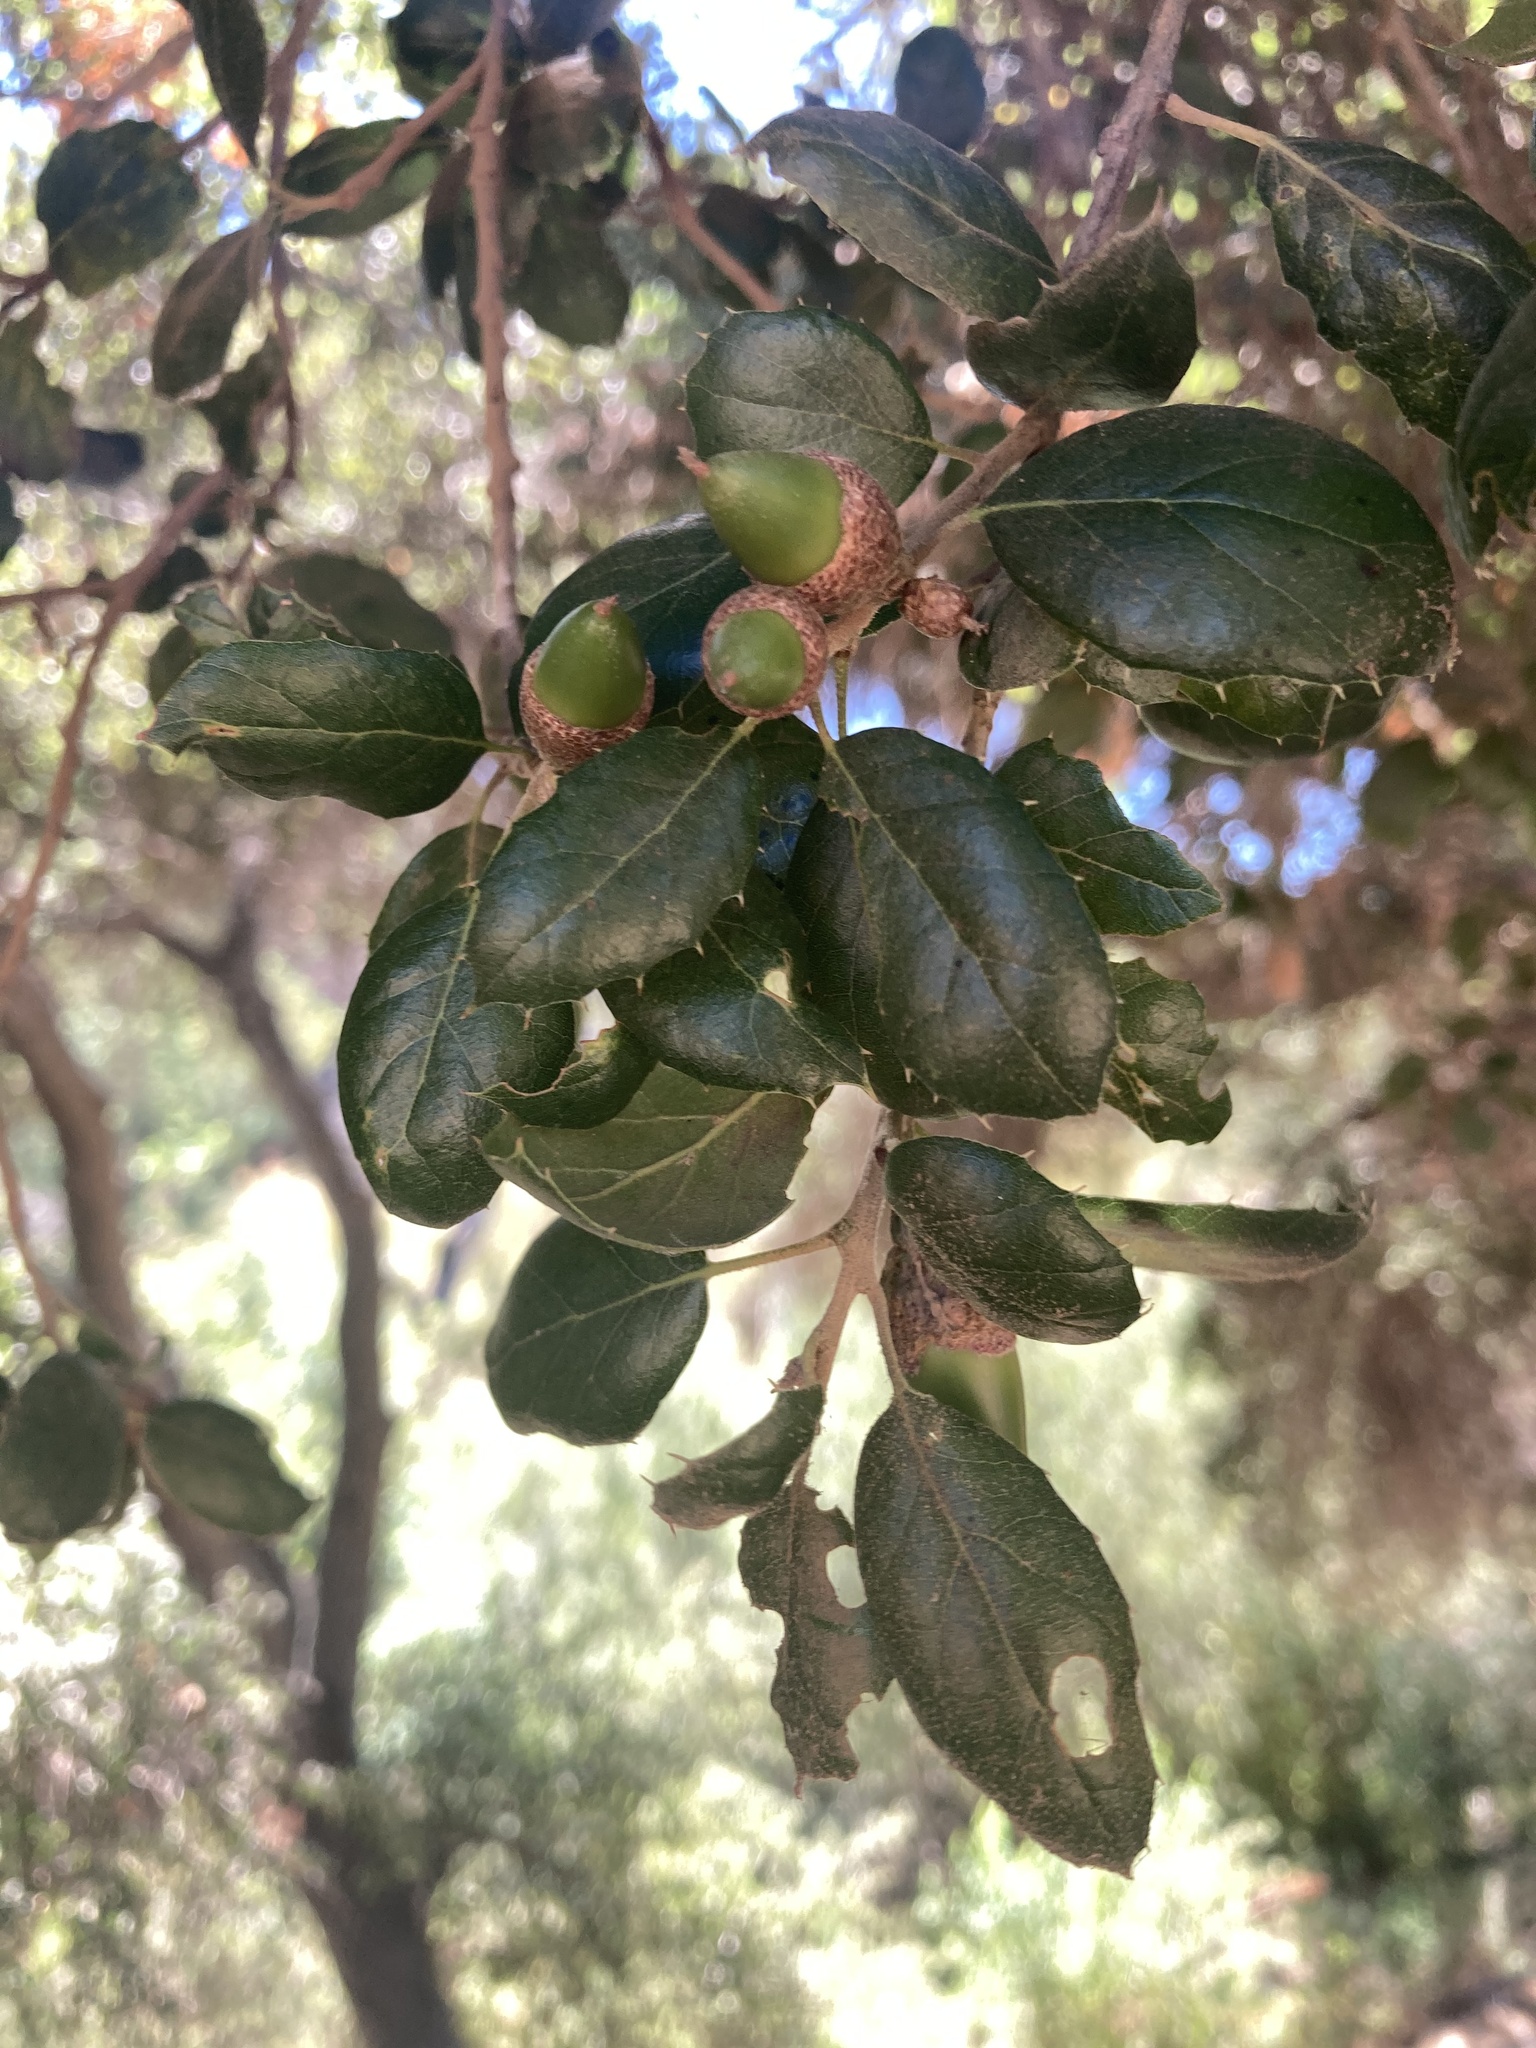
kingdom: Plantae
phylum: Tracheophyta
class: Magnoliopsida
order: Fagales
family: Fagaceae
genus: Quercus
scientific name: Quercus agrifolia
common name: California live oak
